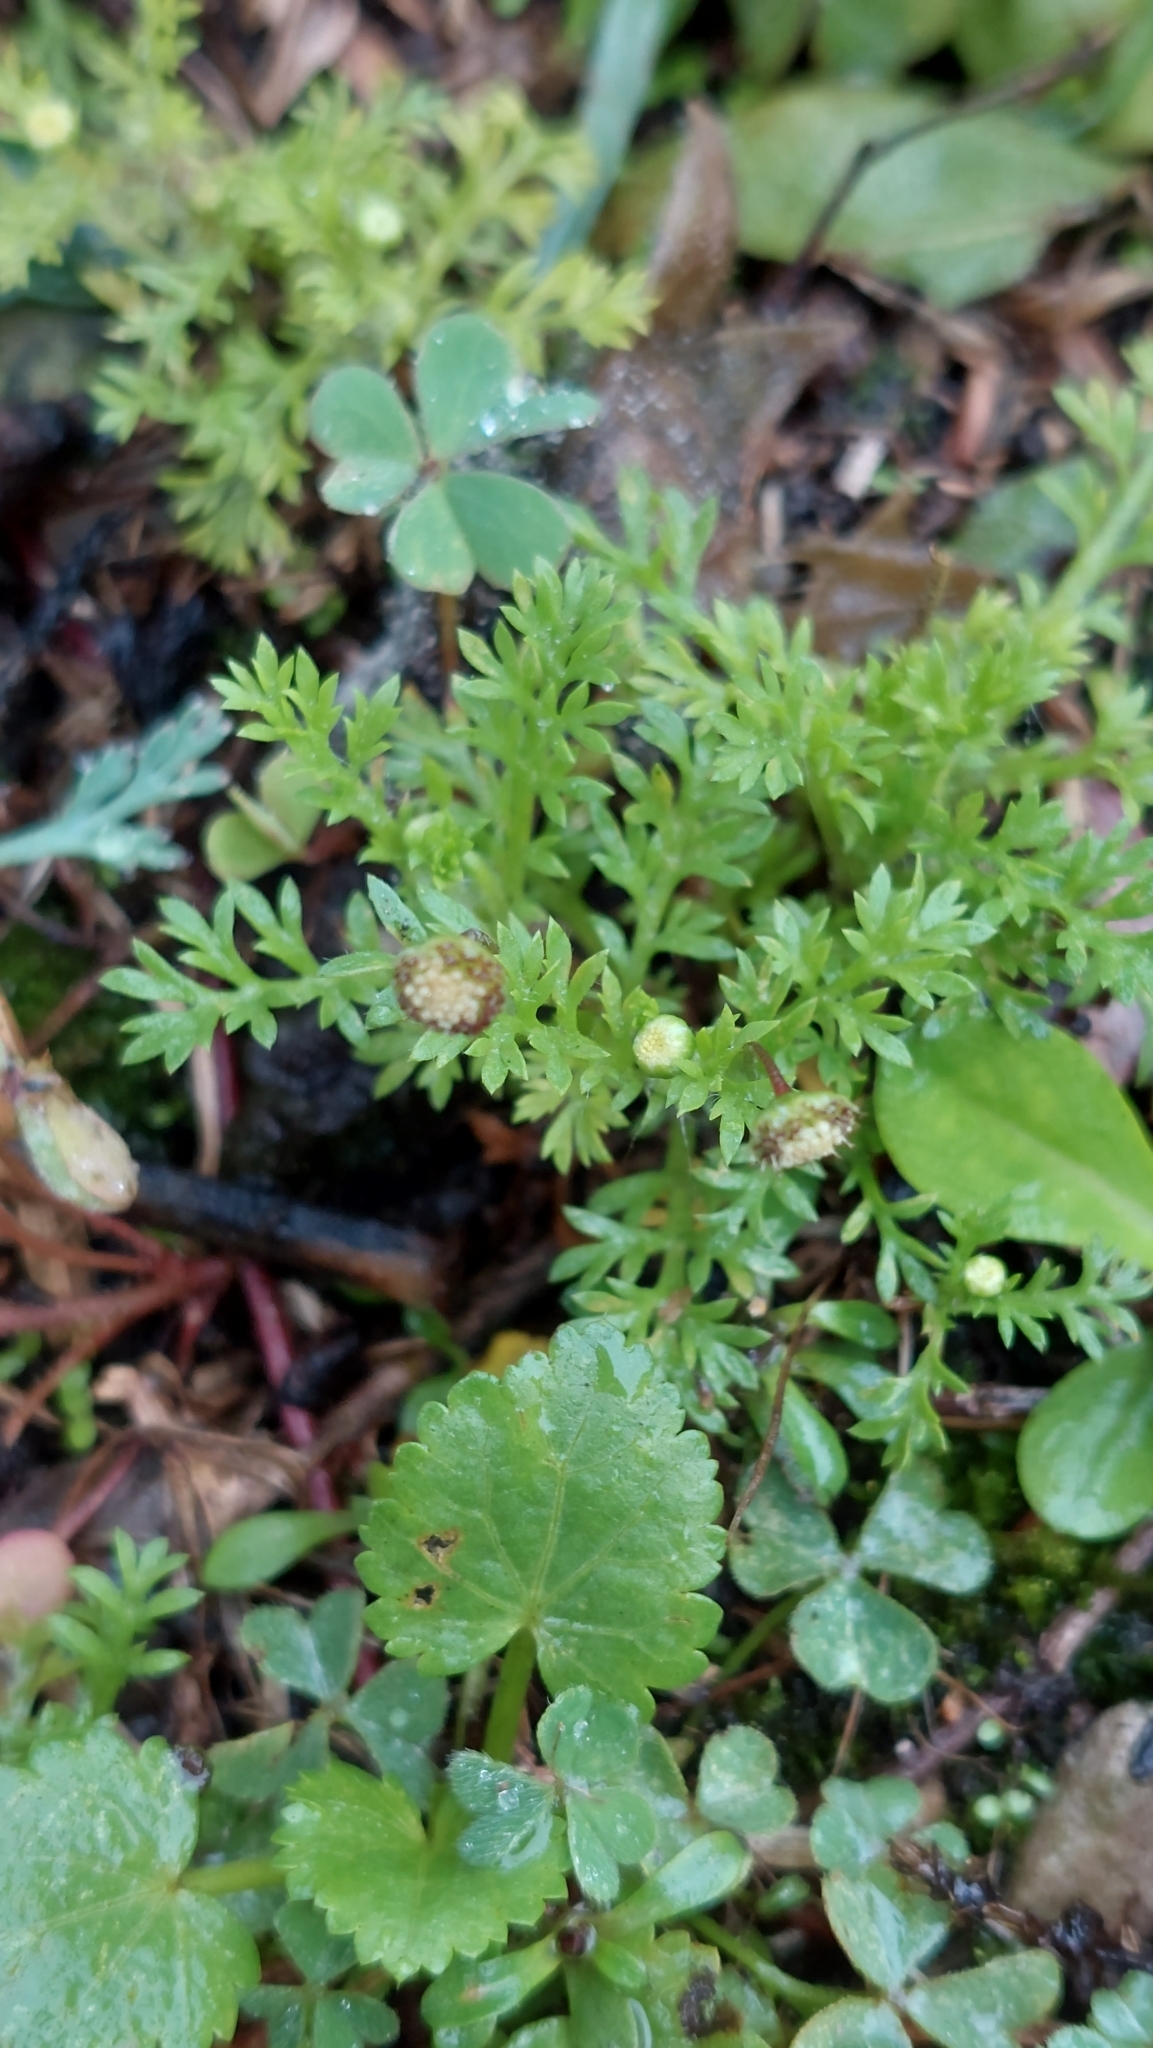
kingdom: Plantae
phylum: Tracheophyta
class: Magnoliopsida
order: Asterales
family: Asteraceae
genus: Cotula
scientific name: Cotula australis
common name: Australian waterbuttons
